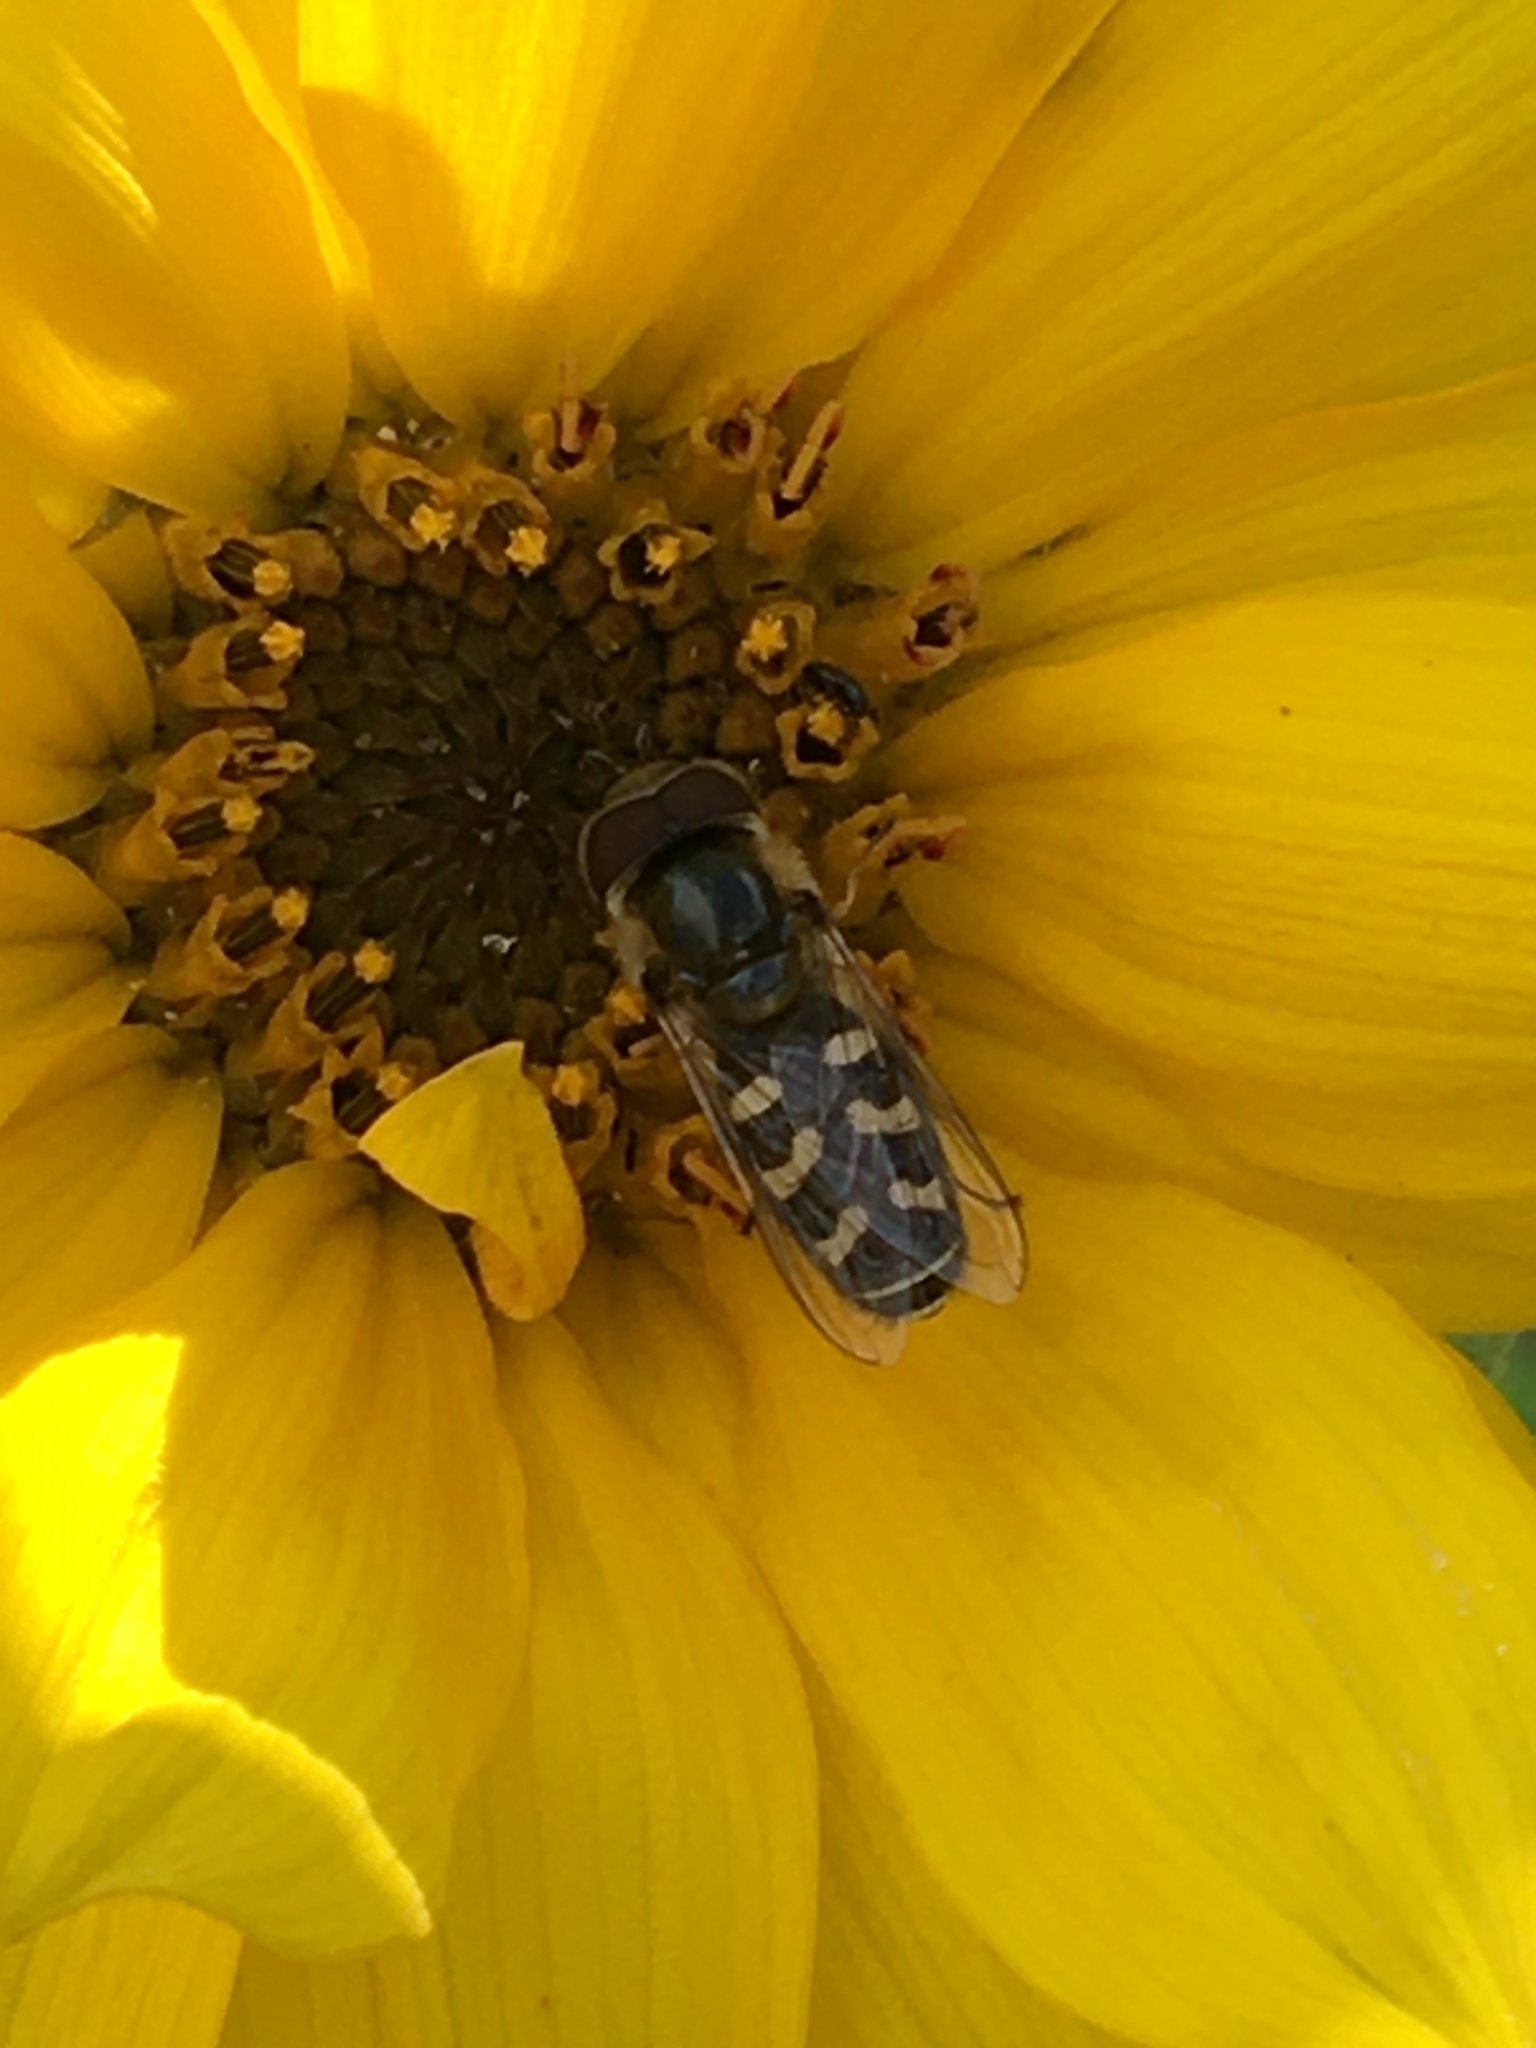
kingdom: Animalia
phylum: Arthropoda
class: Insecta
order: Diptera
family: Syrphidae
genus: Scaeva
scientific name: Scaeva pyrastri
